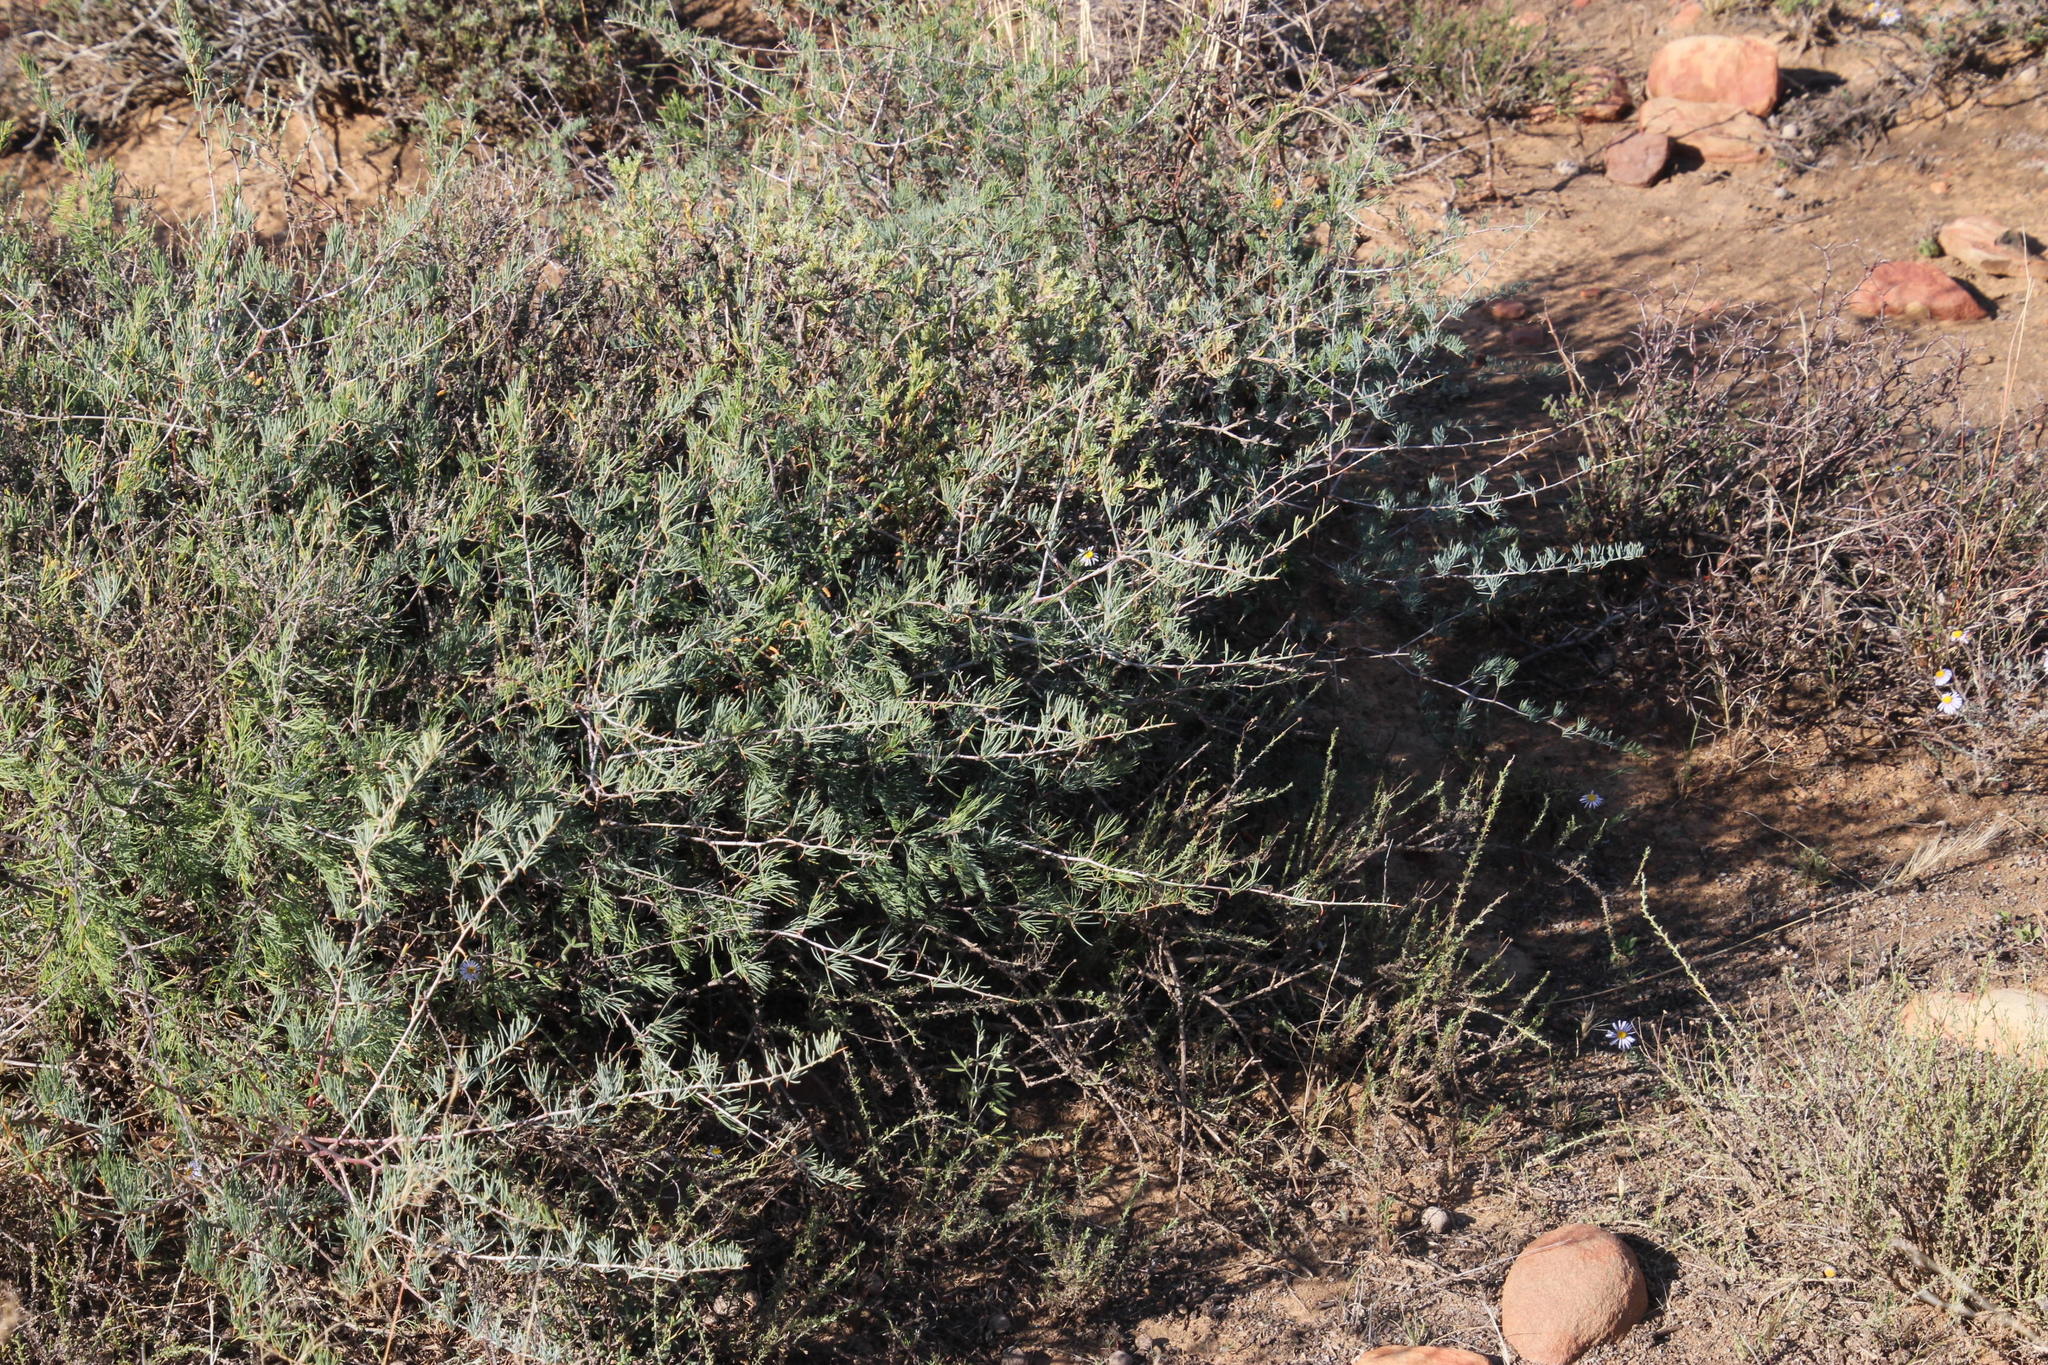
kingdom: Plantae
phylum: Tracheophyta
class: Liliopsida
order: Asparagales
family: Asparagaceae
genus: Asparagus
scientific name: Asparagus glaucus
